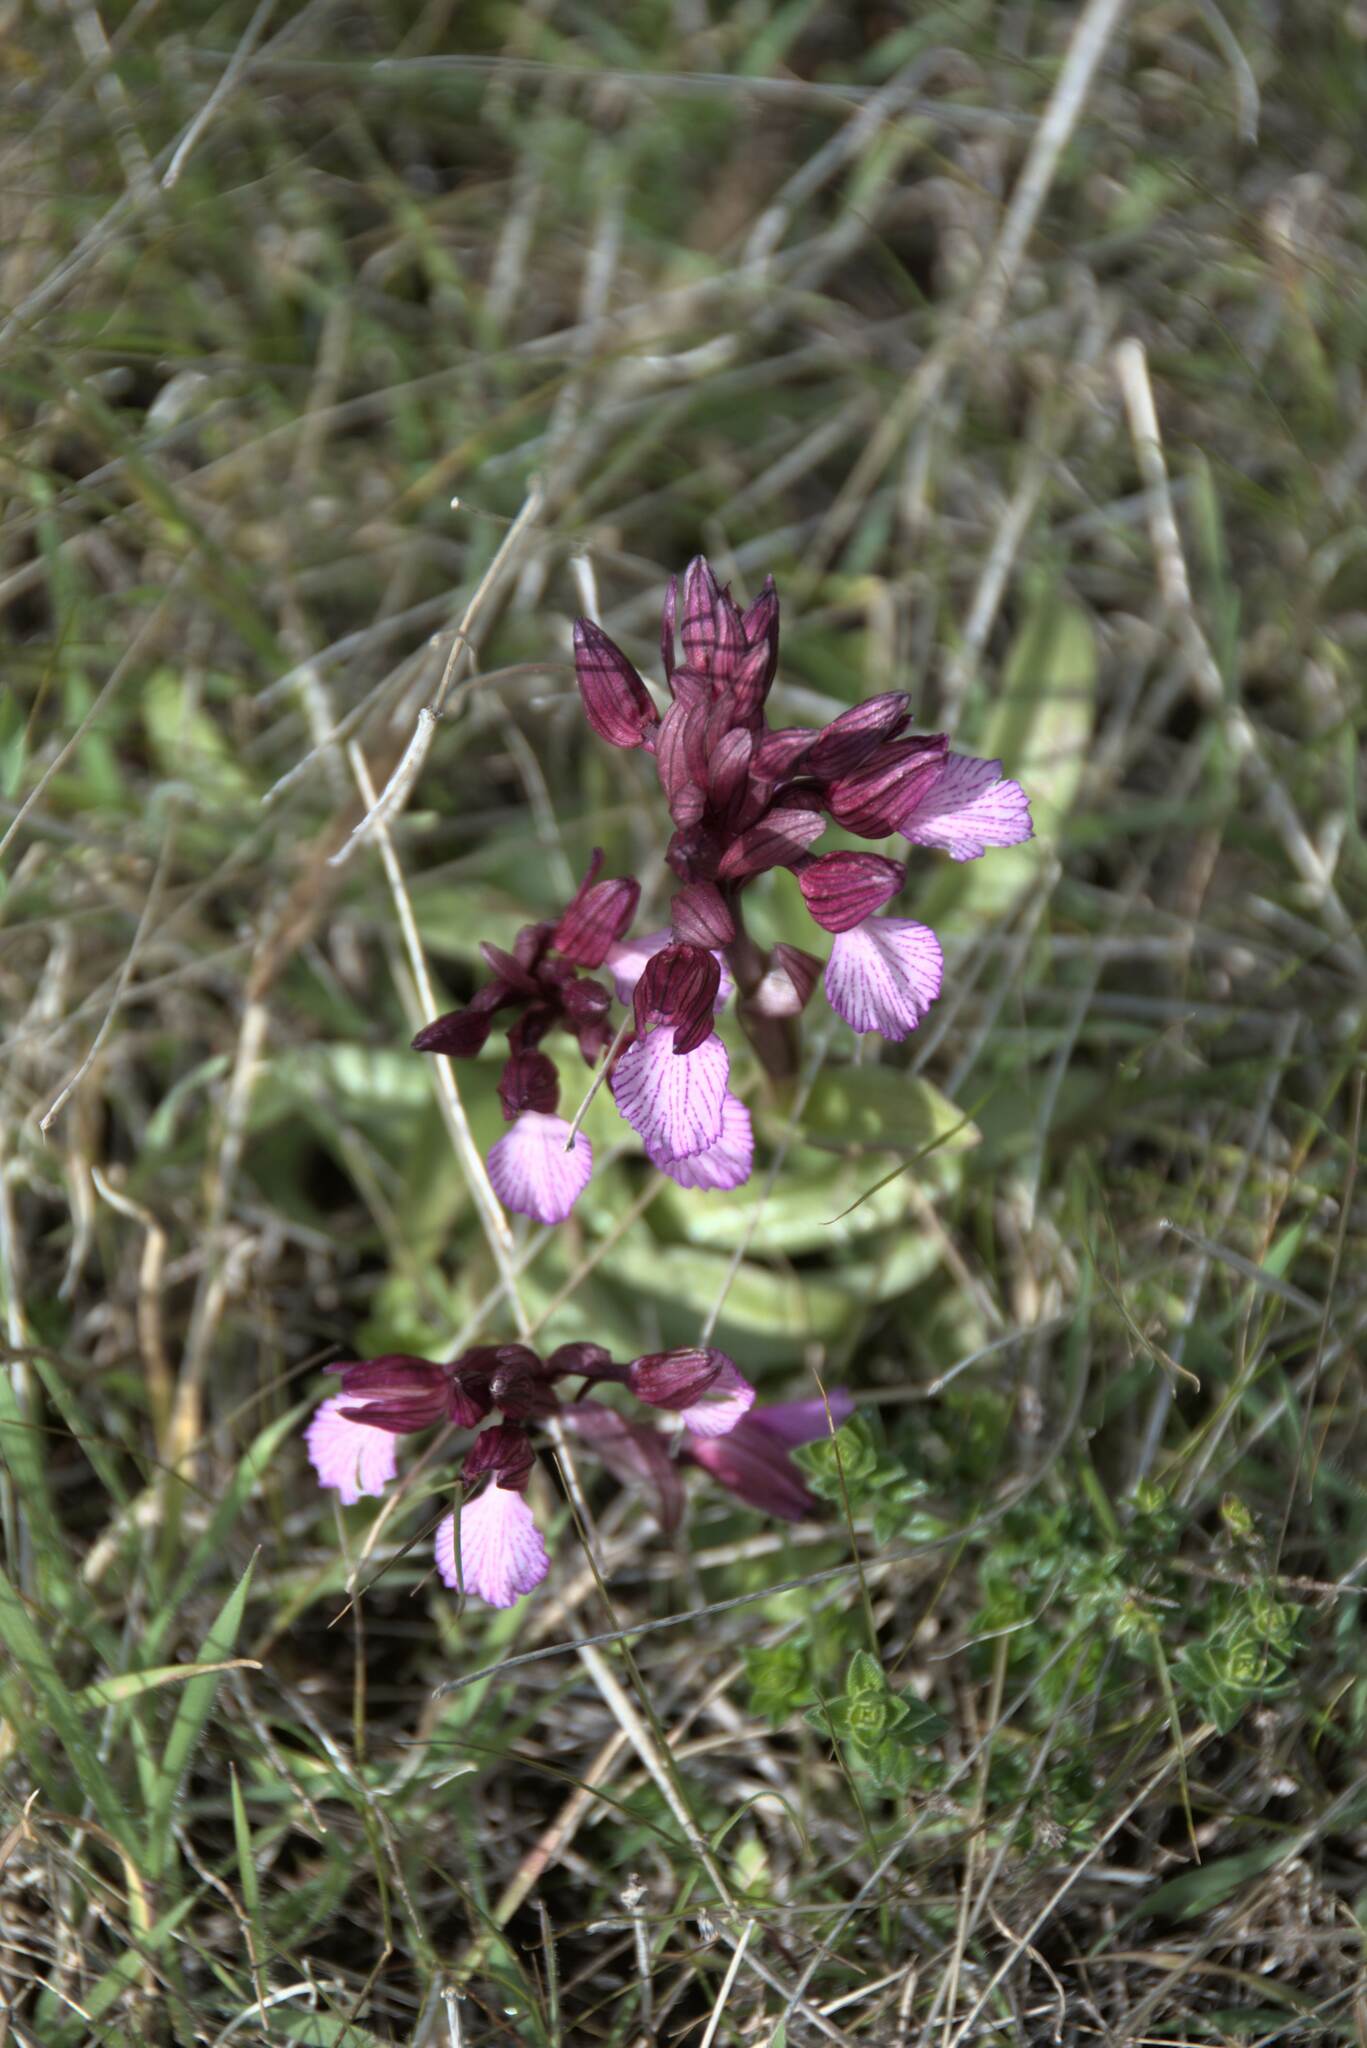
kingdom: Plantae
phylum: Tracheophyta
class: Liliopsida
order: Asparagales
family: Orchidaceae
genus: Anacamptis
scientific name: Anacamptis papilionacea
